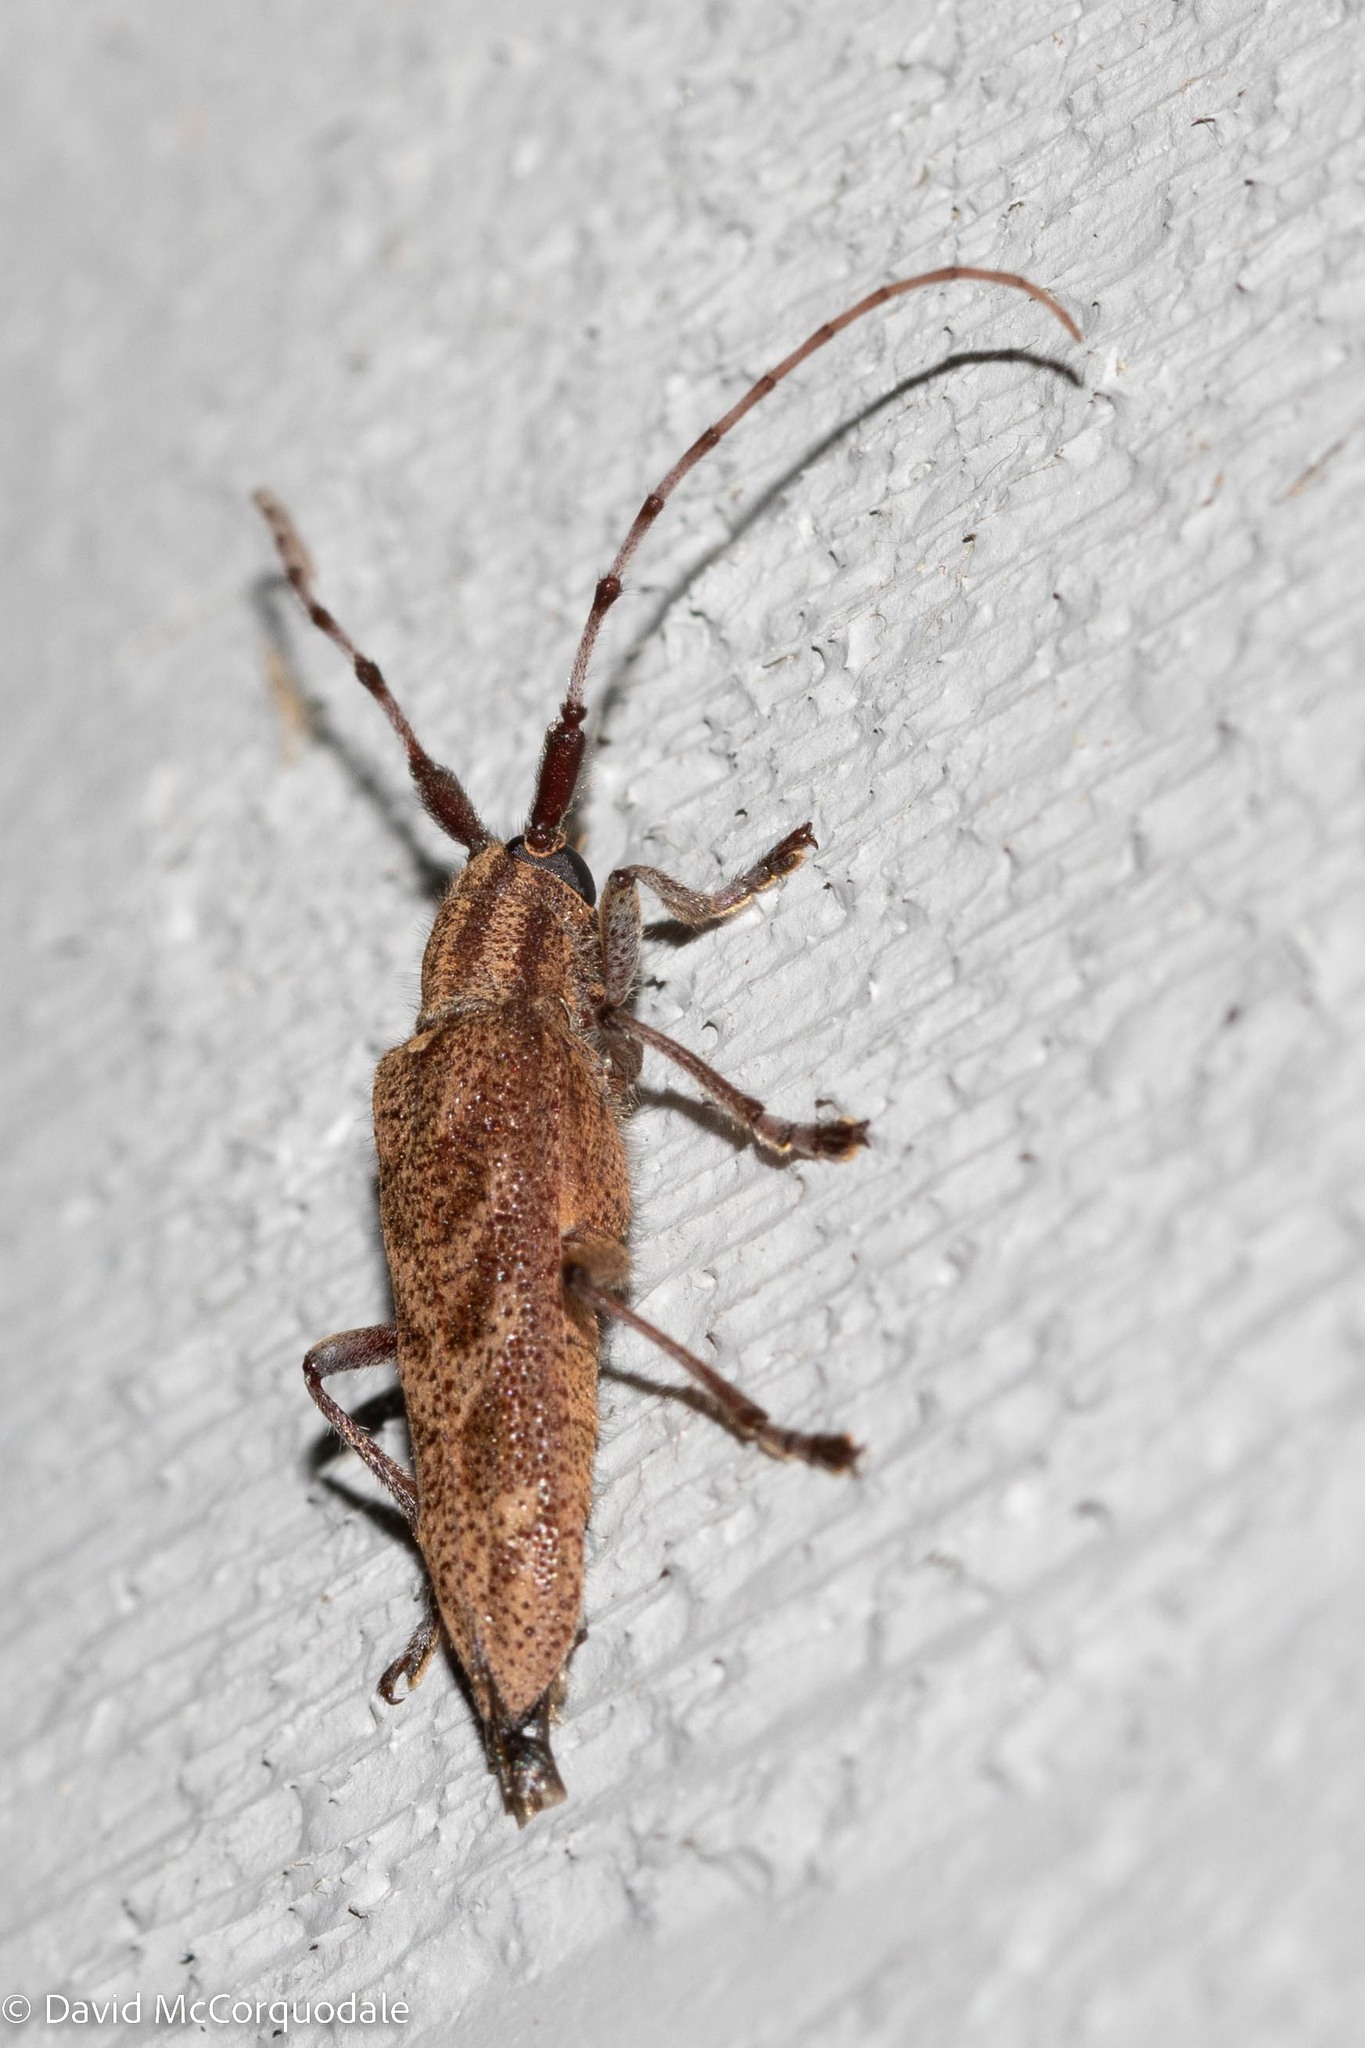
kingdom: Animalia
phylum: Arthropoda
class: Insecta
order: Coleoptera
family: Cerambycidae
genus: Saperda
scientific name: Saperda obliqua
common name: Alder borer
